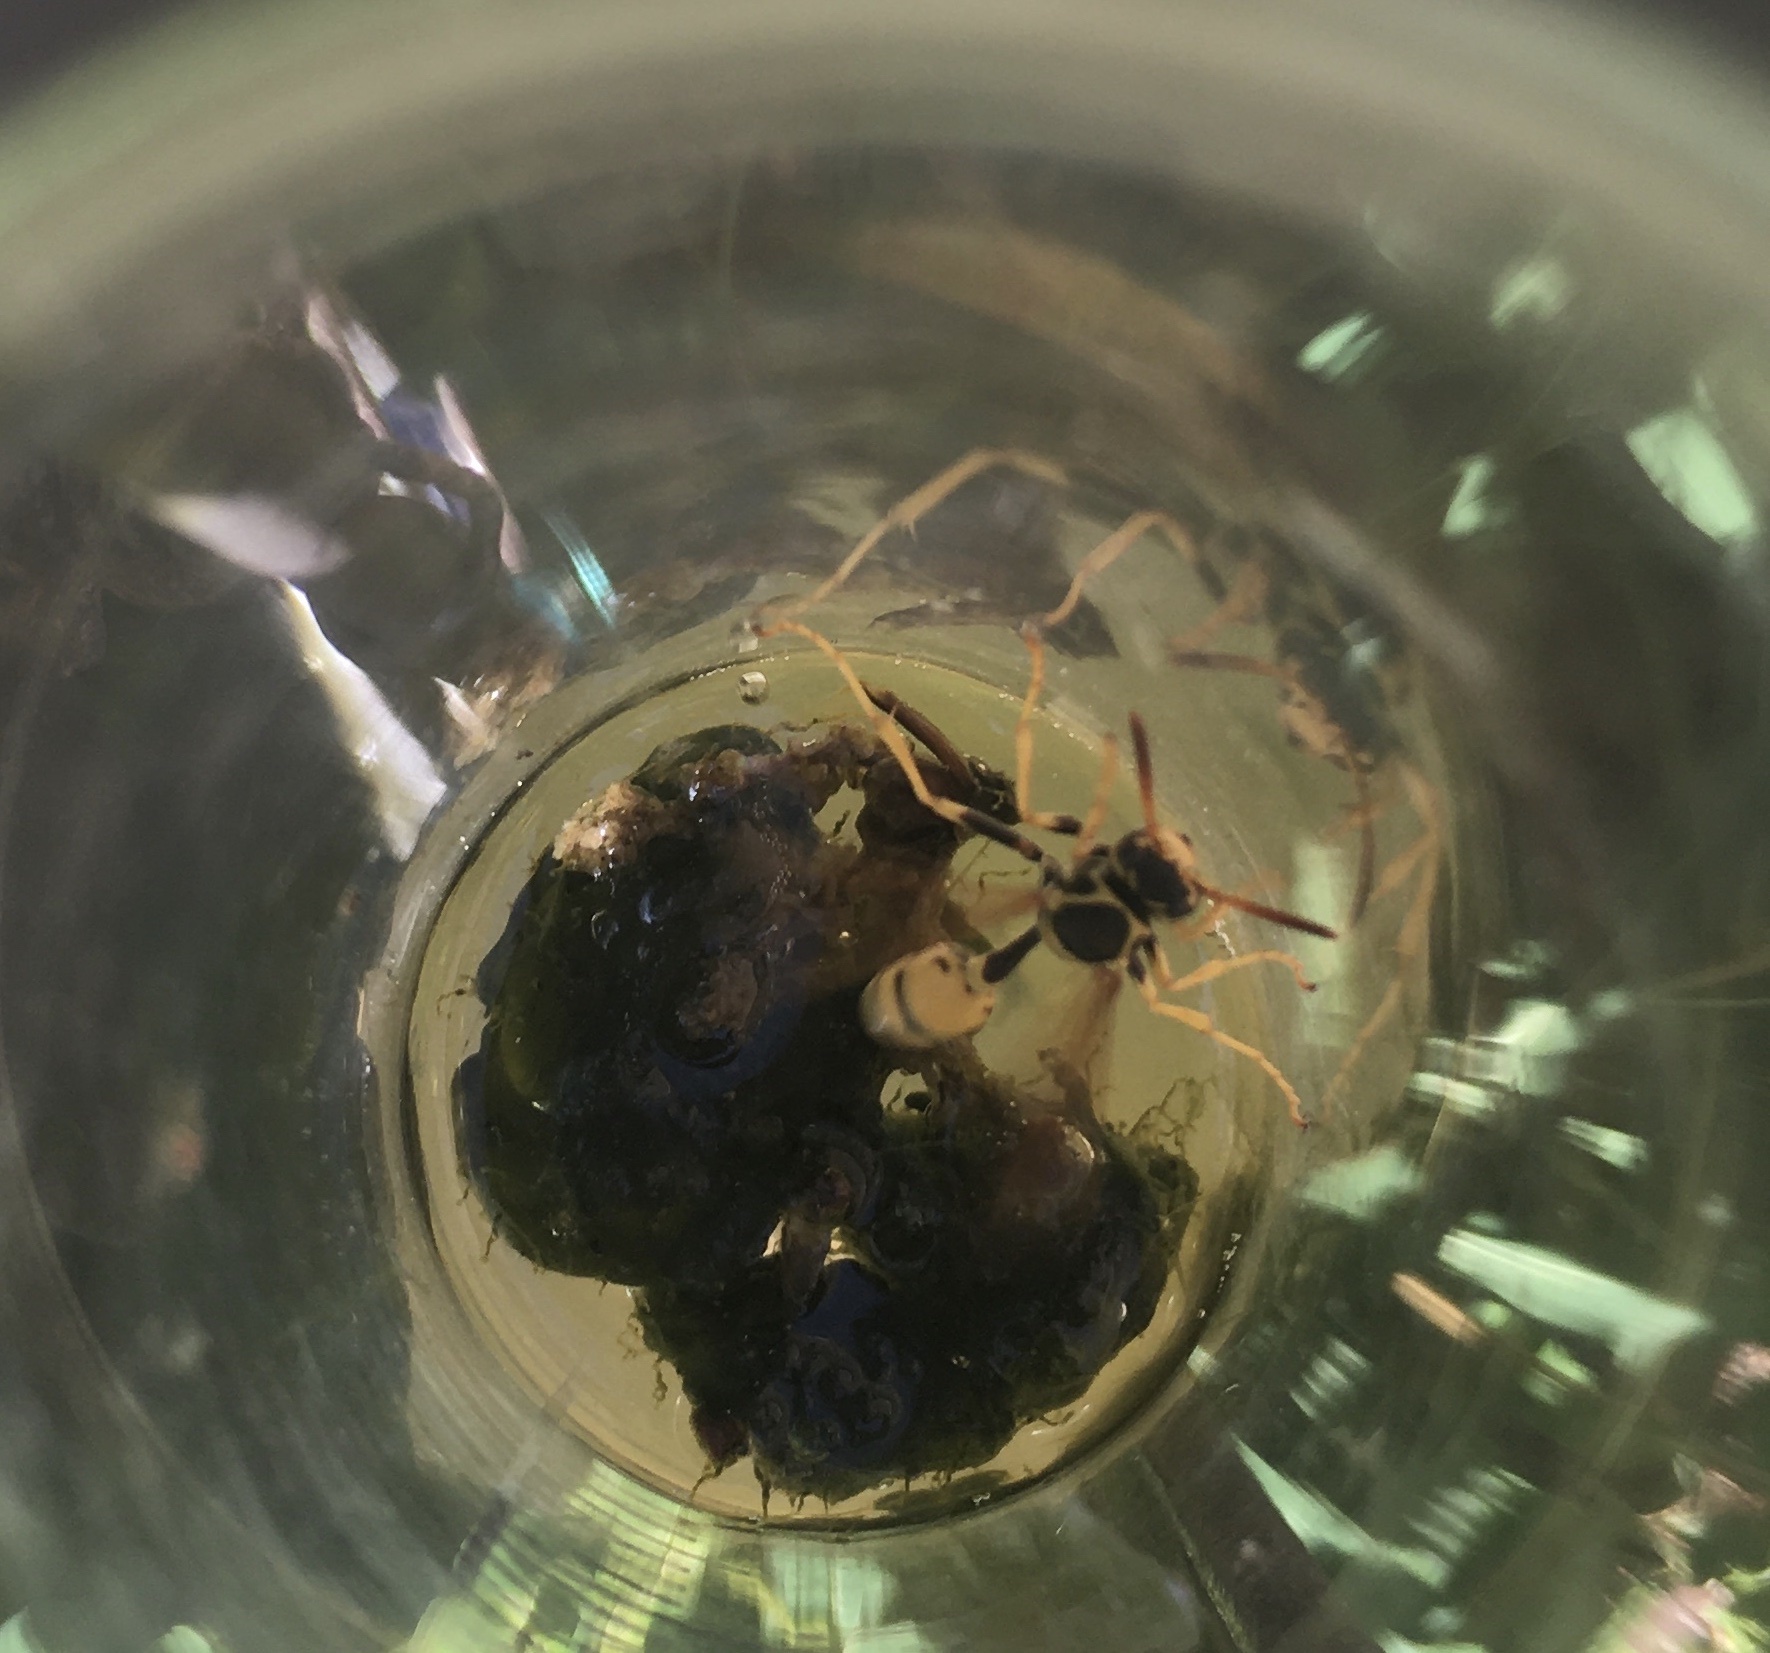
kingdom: Animalia
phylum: Arthropoda
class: Insecta
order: Hymenoptera
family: Vespidae
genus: Mischocyttarus
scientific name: Mischocyttarus flavitarsis
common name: Wasp
